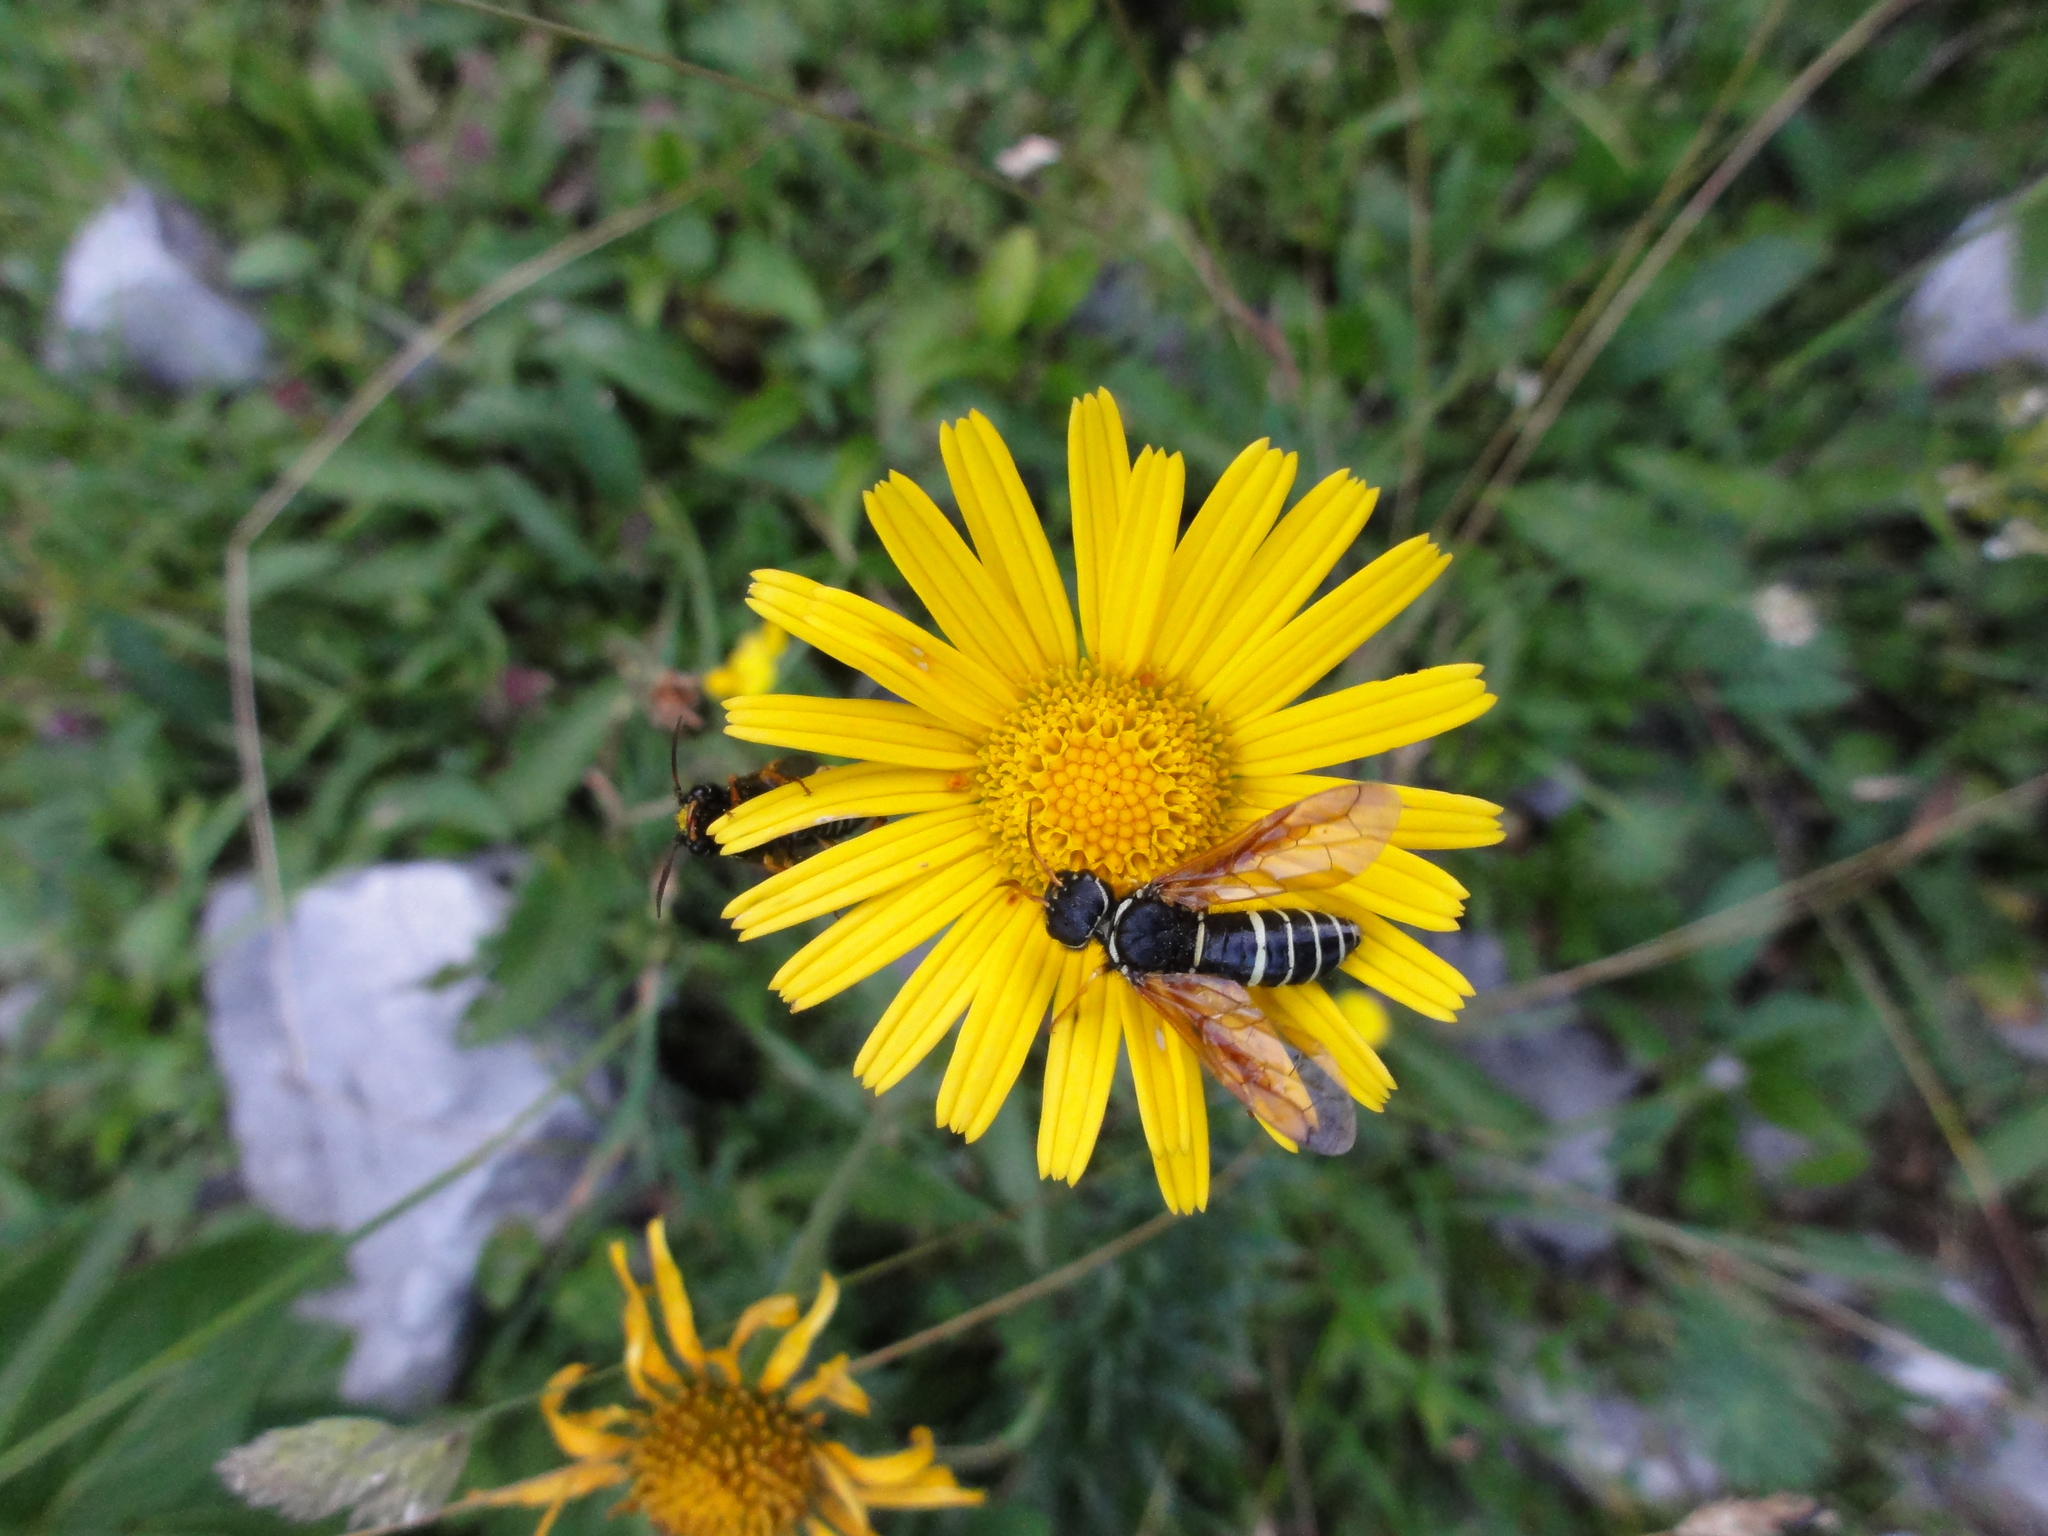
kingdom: Animalia
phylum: Arthropoda
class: Insecta
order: Hymenoptera
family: Megalodontesidae
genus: Megalodontes
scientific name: Megalodontes thor
